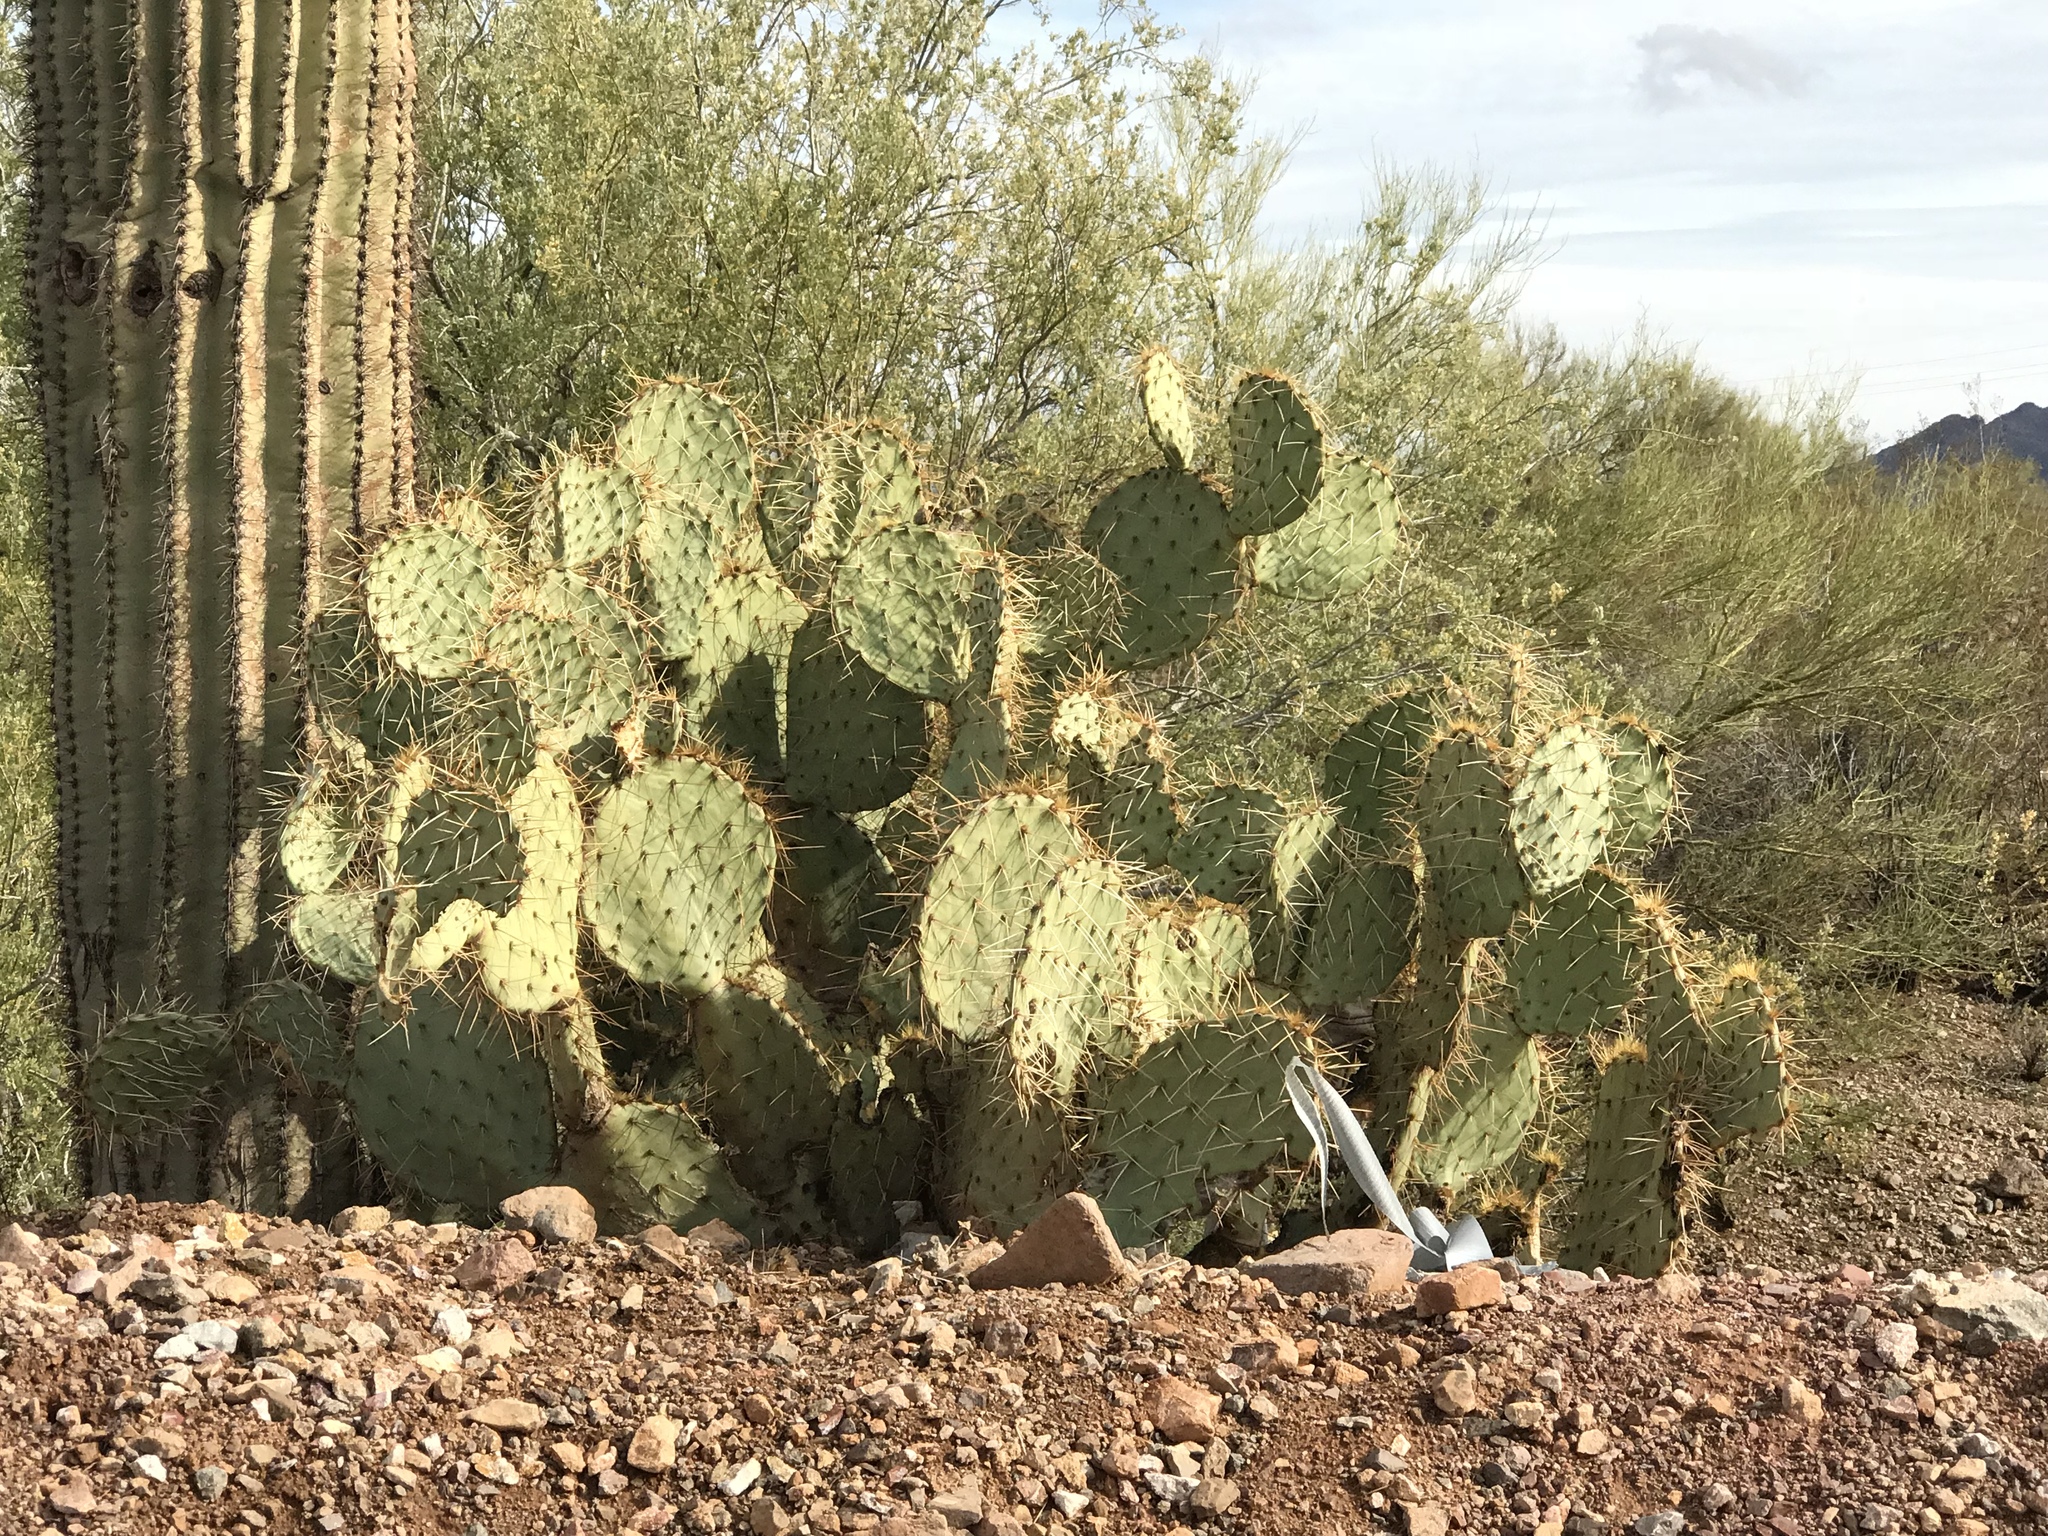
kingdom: Plantae
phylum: Tracheophyta
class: Magnoliopsida
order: Caryophyllales
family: Cactaceae
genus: Opuntia
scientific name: Opuntia engelmannii
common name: Cactus-apple
